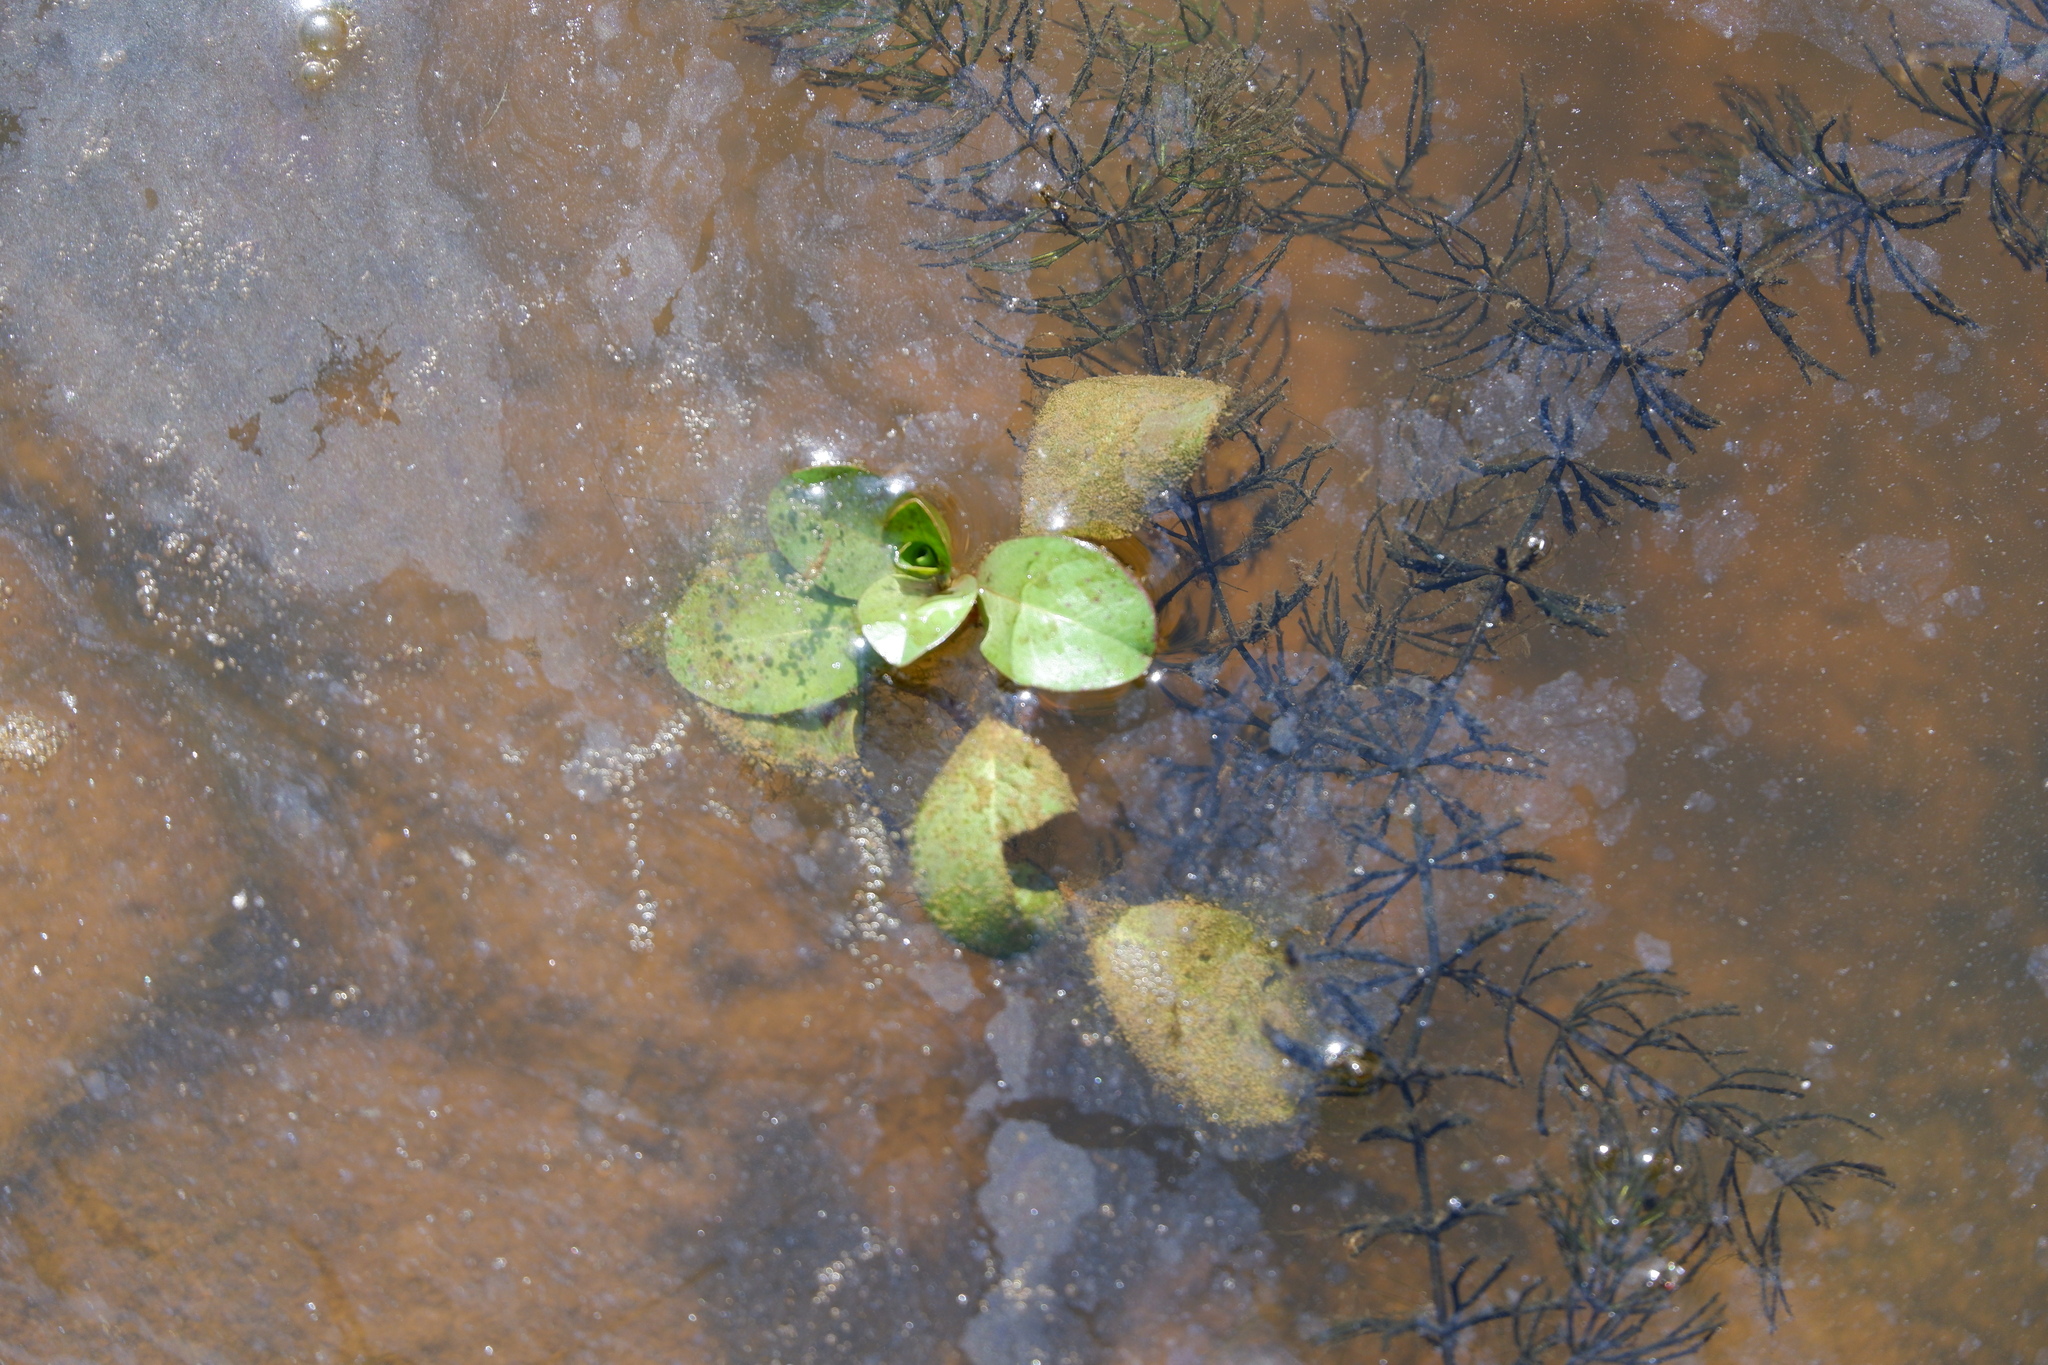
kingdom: Plantae
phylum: Tracheophyta
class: Magnoliopsida
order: Myrtales
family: Onagraceae
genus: Ludwigia
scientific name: Ludwigia peploides
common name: Floating primrose-willow
